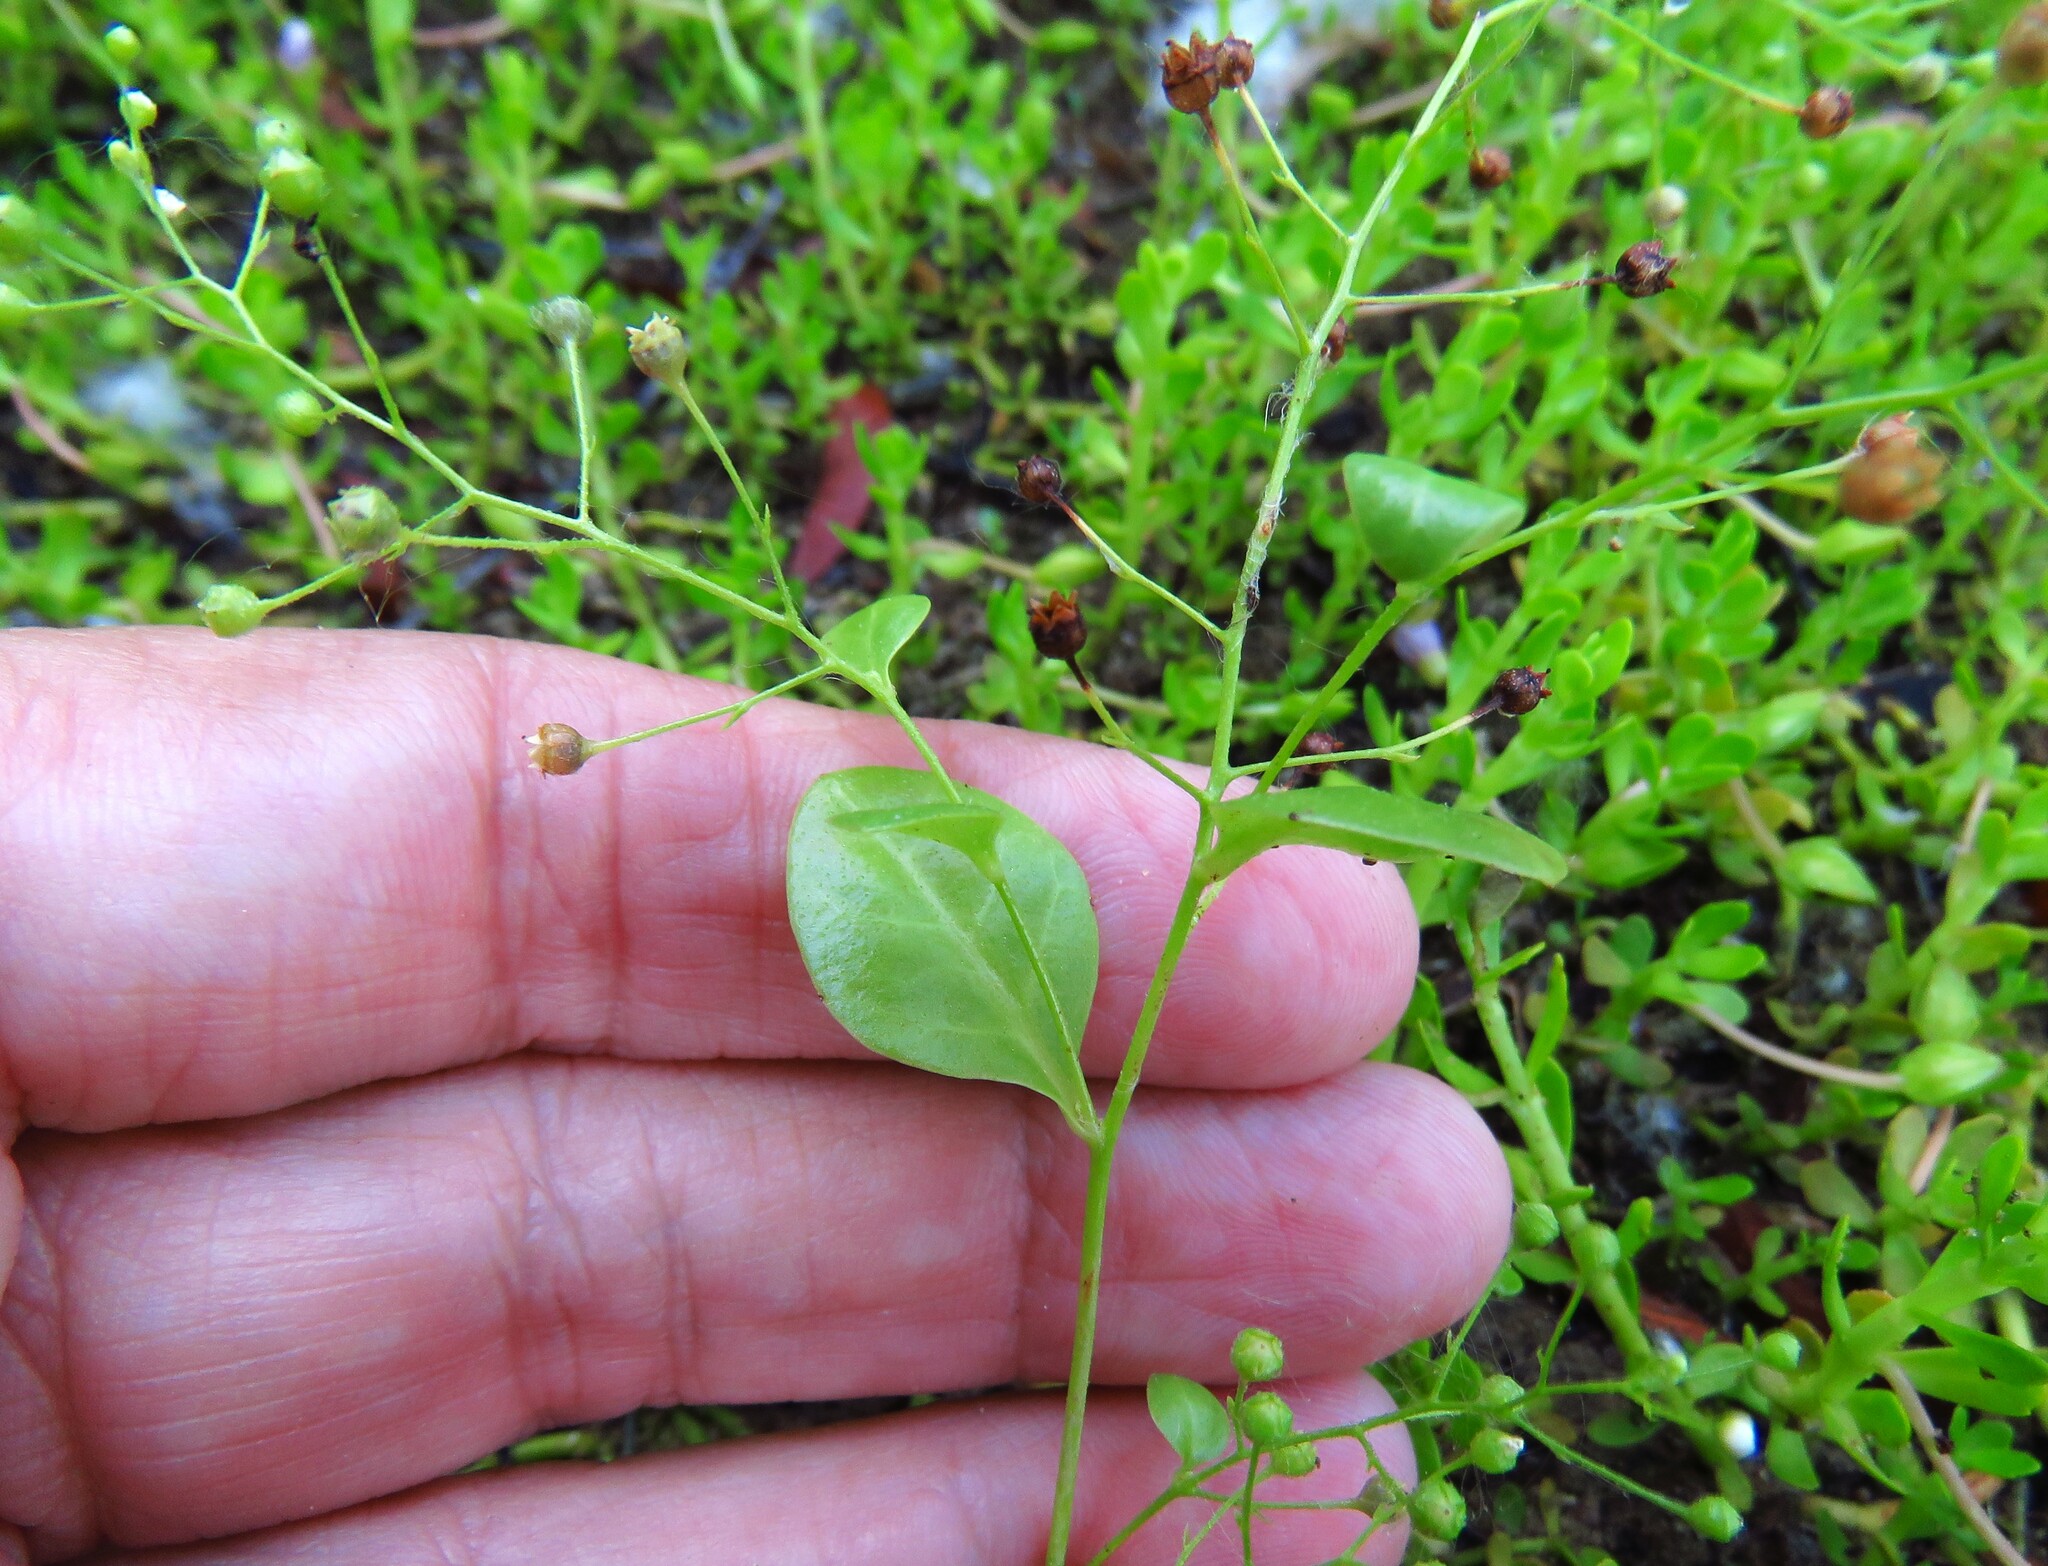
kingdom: Plantae
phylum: Tracheophyta
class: Magnoliopsida
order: Ericales
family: Primulaceae
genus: Samolus
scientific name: Samolus parviflorus
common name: False water pimpernel
